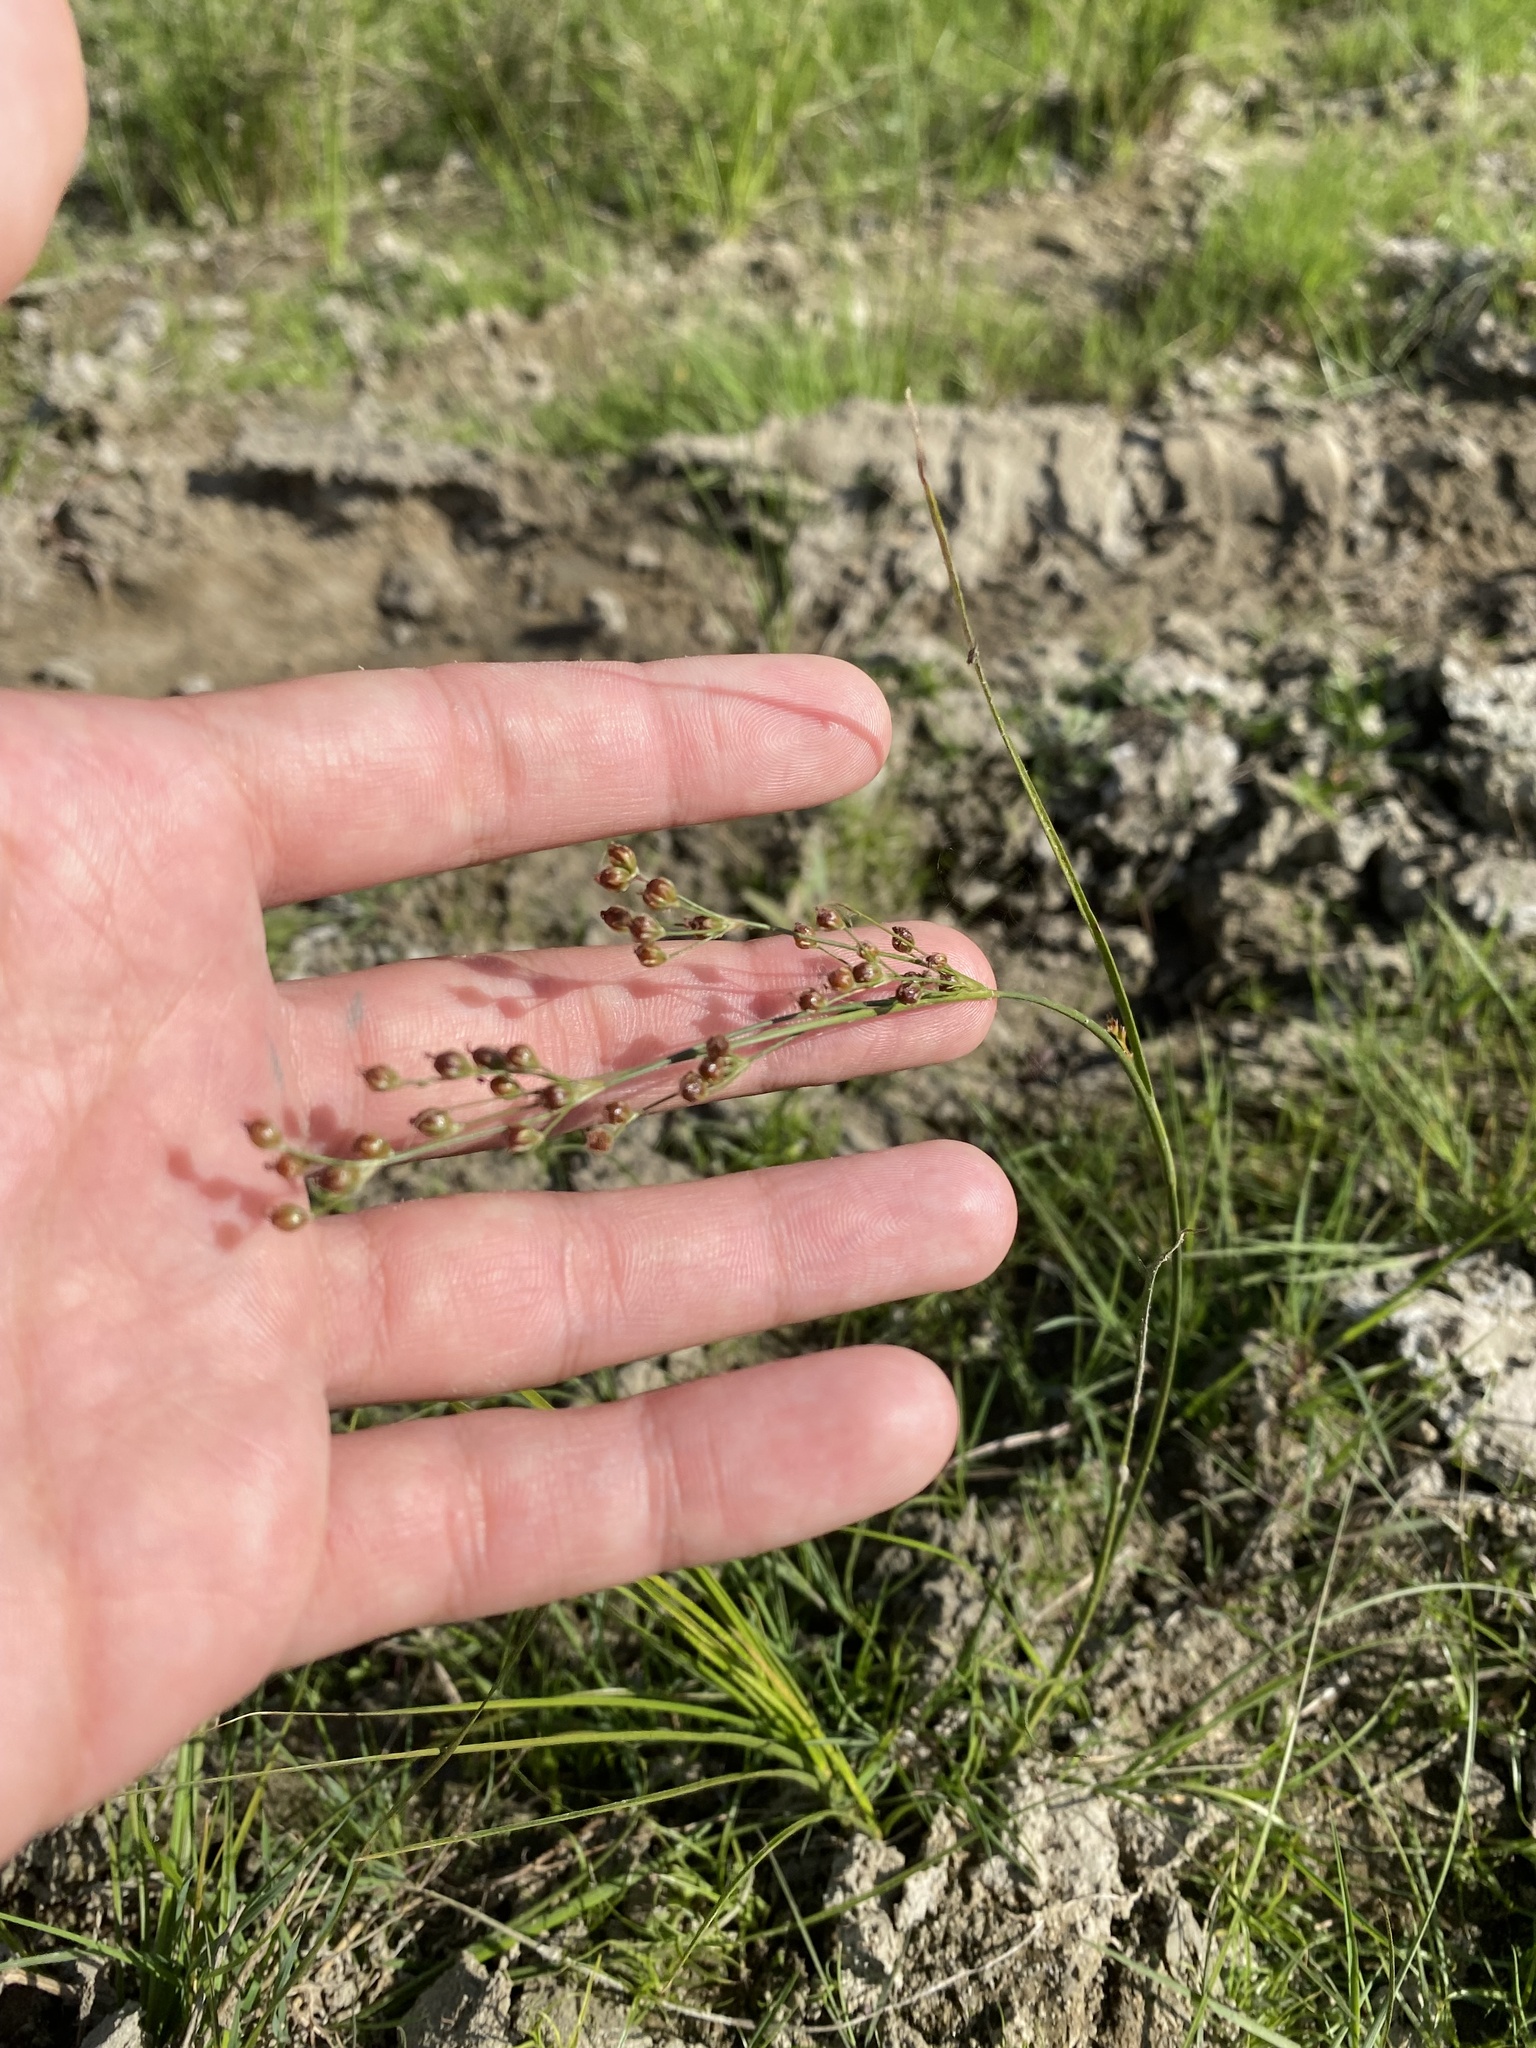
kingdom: Plantae
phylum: Tracheophyta
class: Liliopsida
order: Poales
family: Juncaceae
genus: Juncus
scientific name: Juncus compressus
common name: Round-fruited rush
